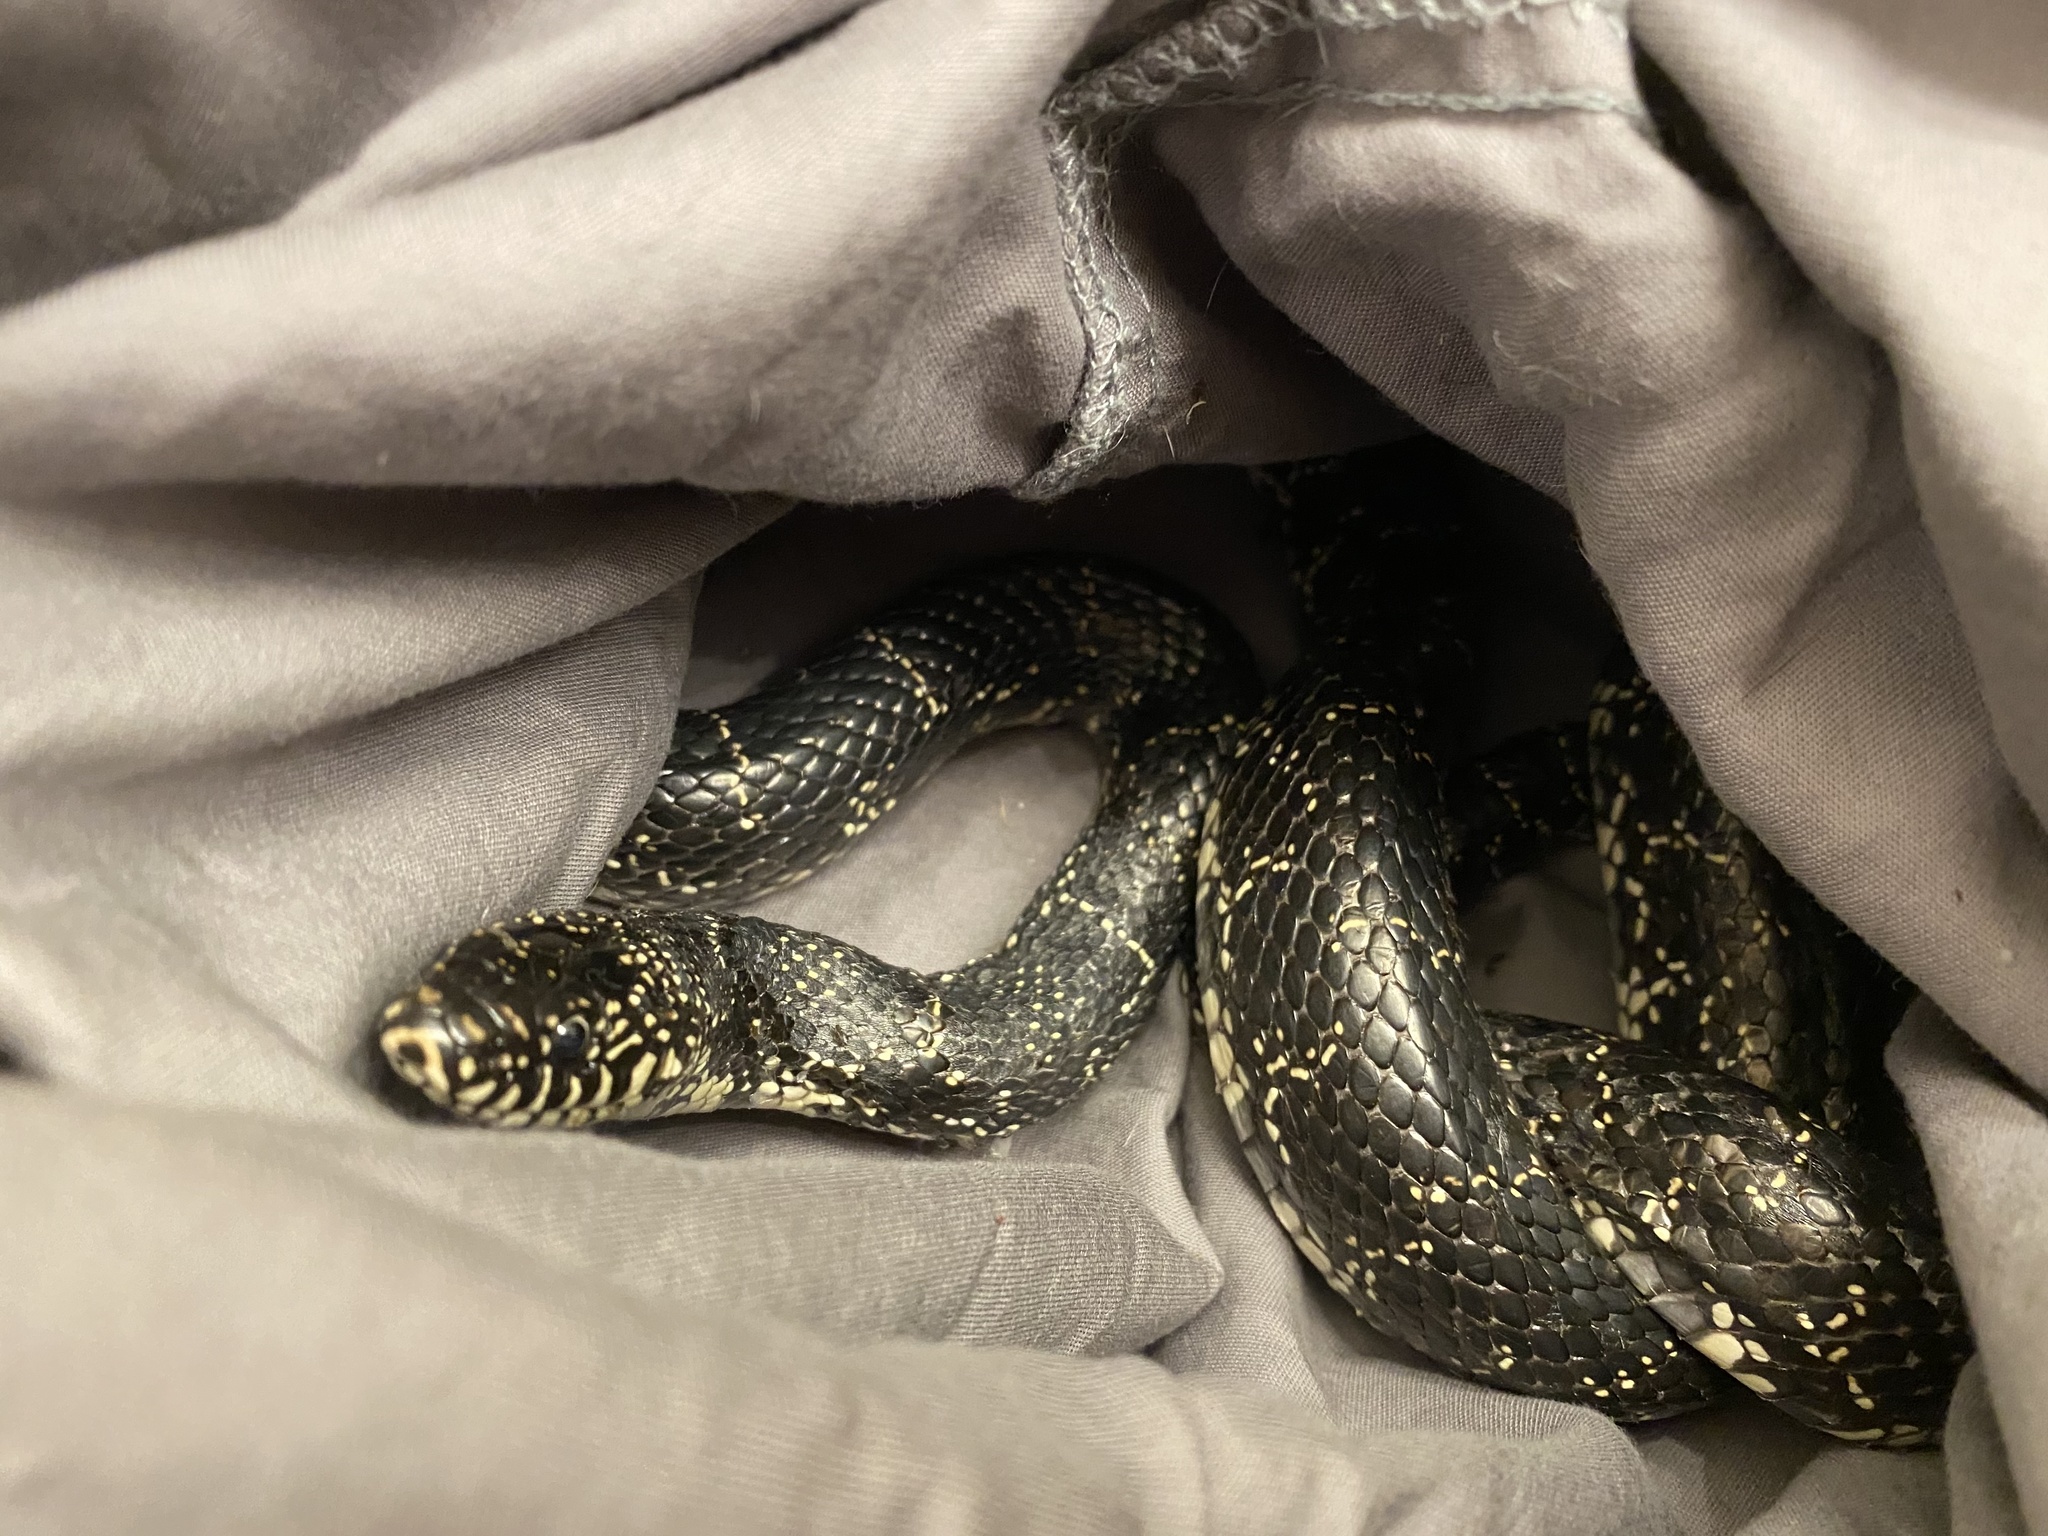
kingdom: Animalia
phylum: Chordata
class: Squamata
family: Colubridae
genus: Lampropeltis
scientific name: Lampropeltis nigra
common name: Black kingsnake
